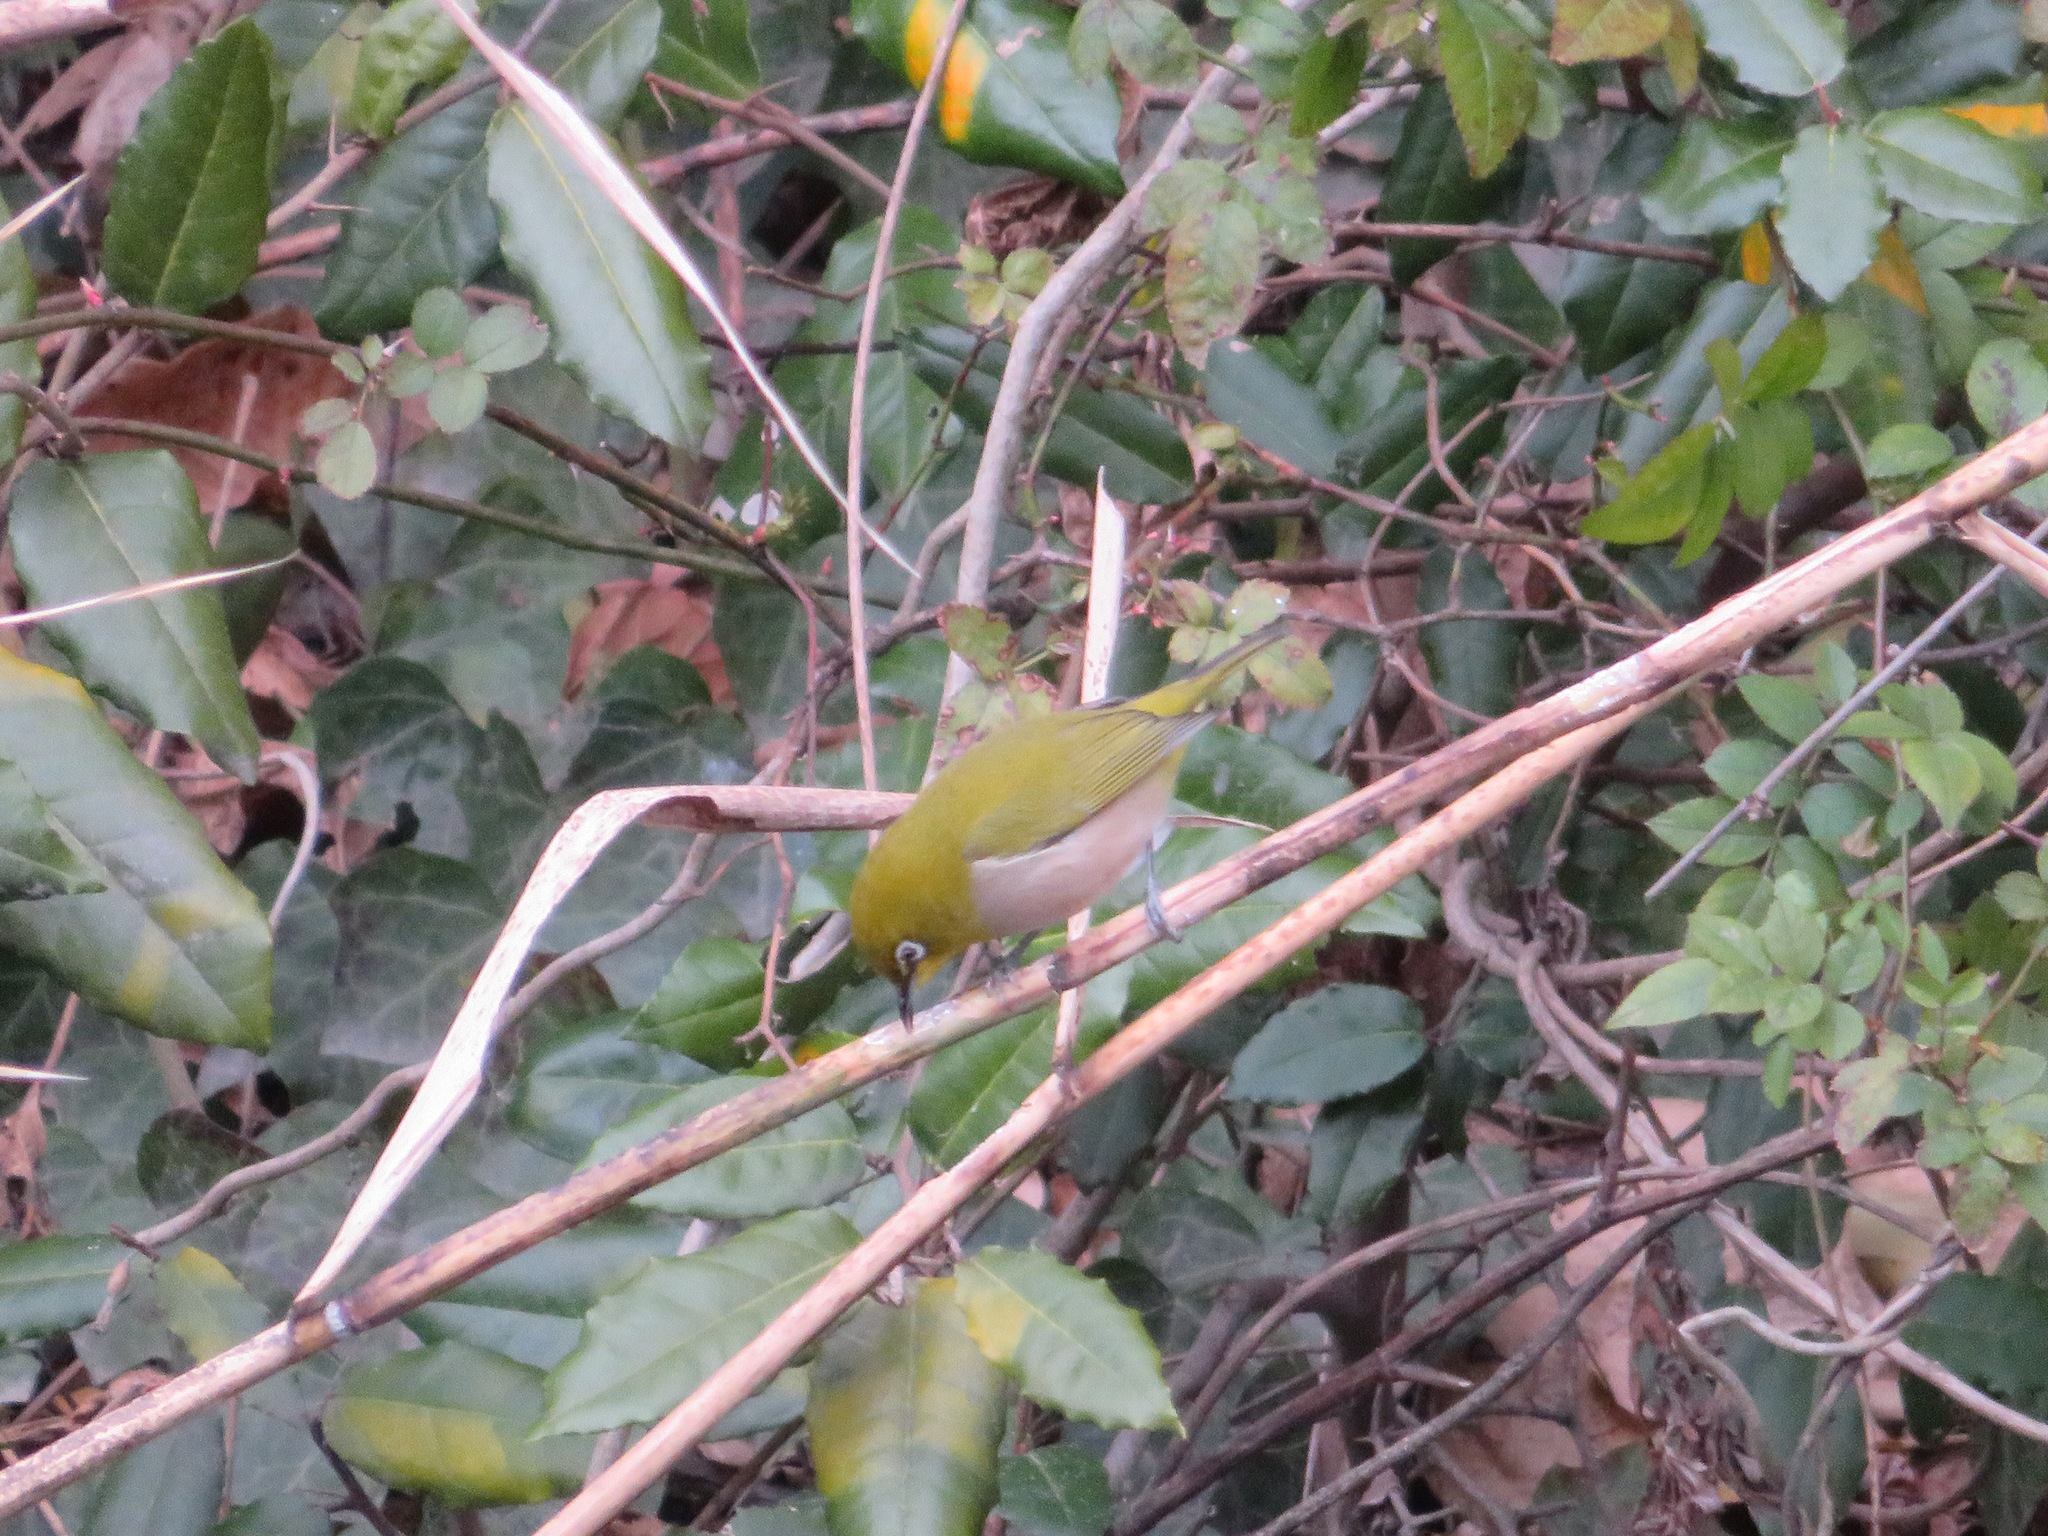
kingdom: Animalia
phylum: Chordata
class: Aves
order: Passeriformes
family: Zosteropidae
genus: Zosterops
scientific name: Zosterops japonicus
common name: Japanese white-eye
